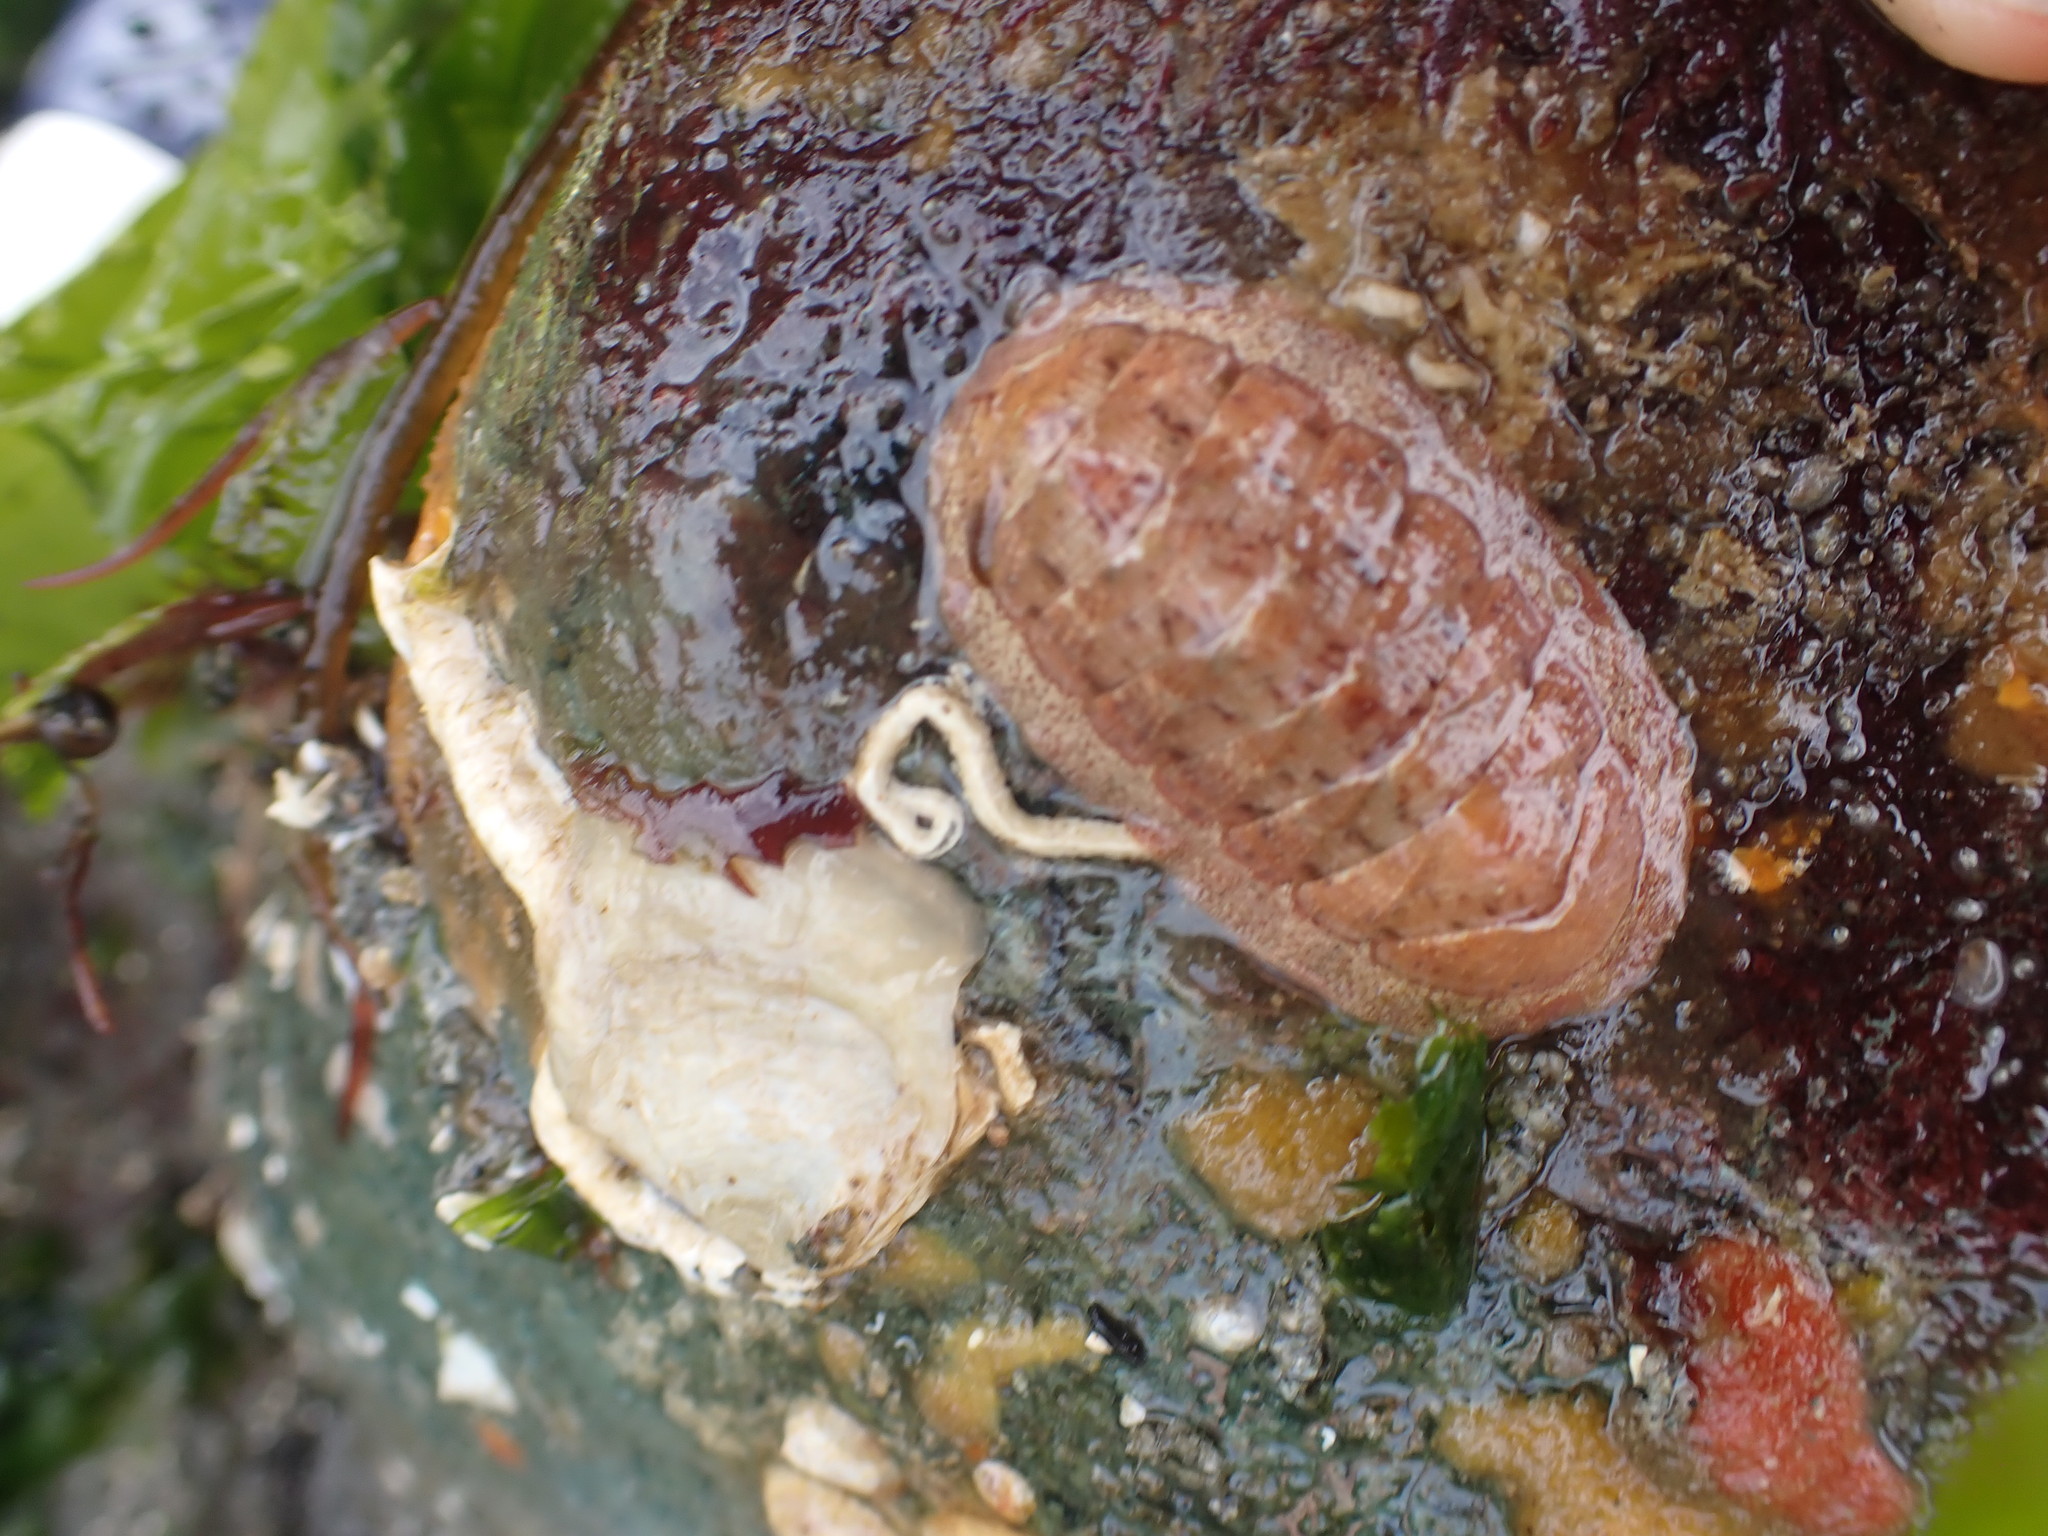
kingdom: Animalia
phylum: Mollusca
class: Polyplacophora
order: Chitonida
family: Ischnochitonidae
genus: Lepidozona
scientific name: Lepidozona mertensii
